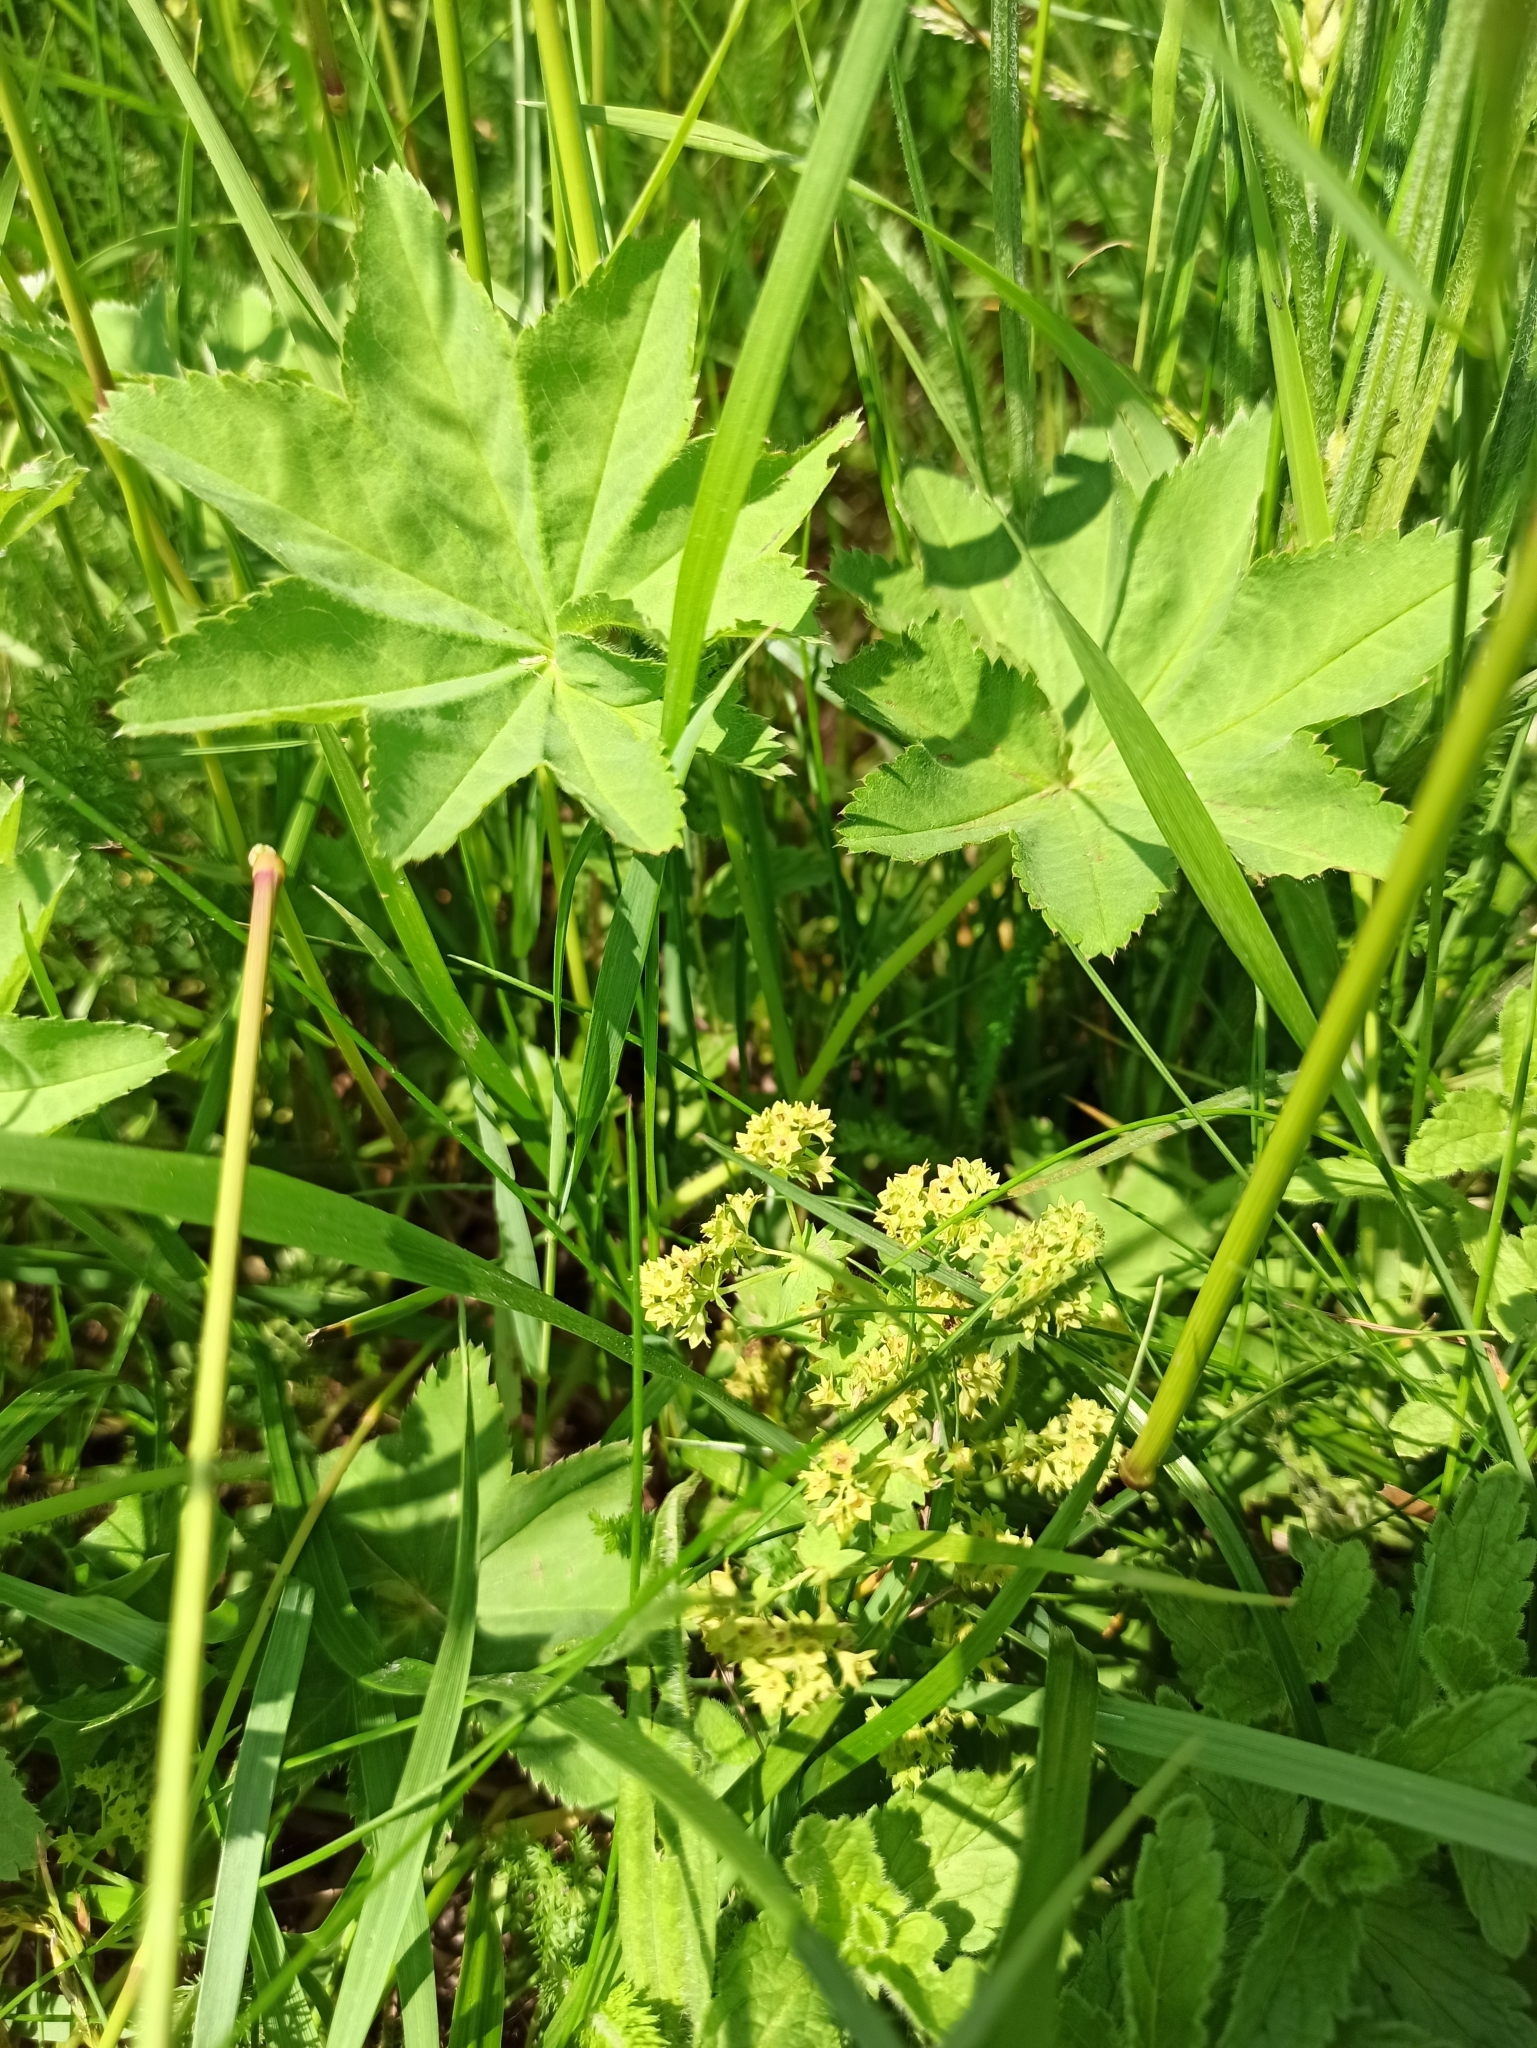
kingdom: Plantae
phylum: Tracheophyta
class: Magnoliopsida
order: Rosales
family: Rosaceae
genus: Alchemilla
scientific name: Alchemilla vulgaris
